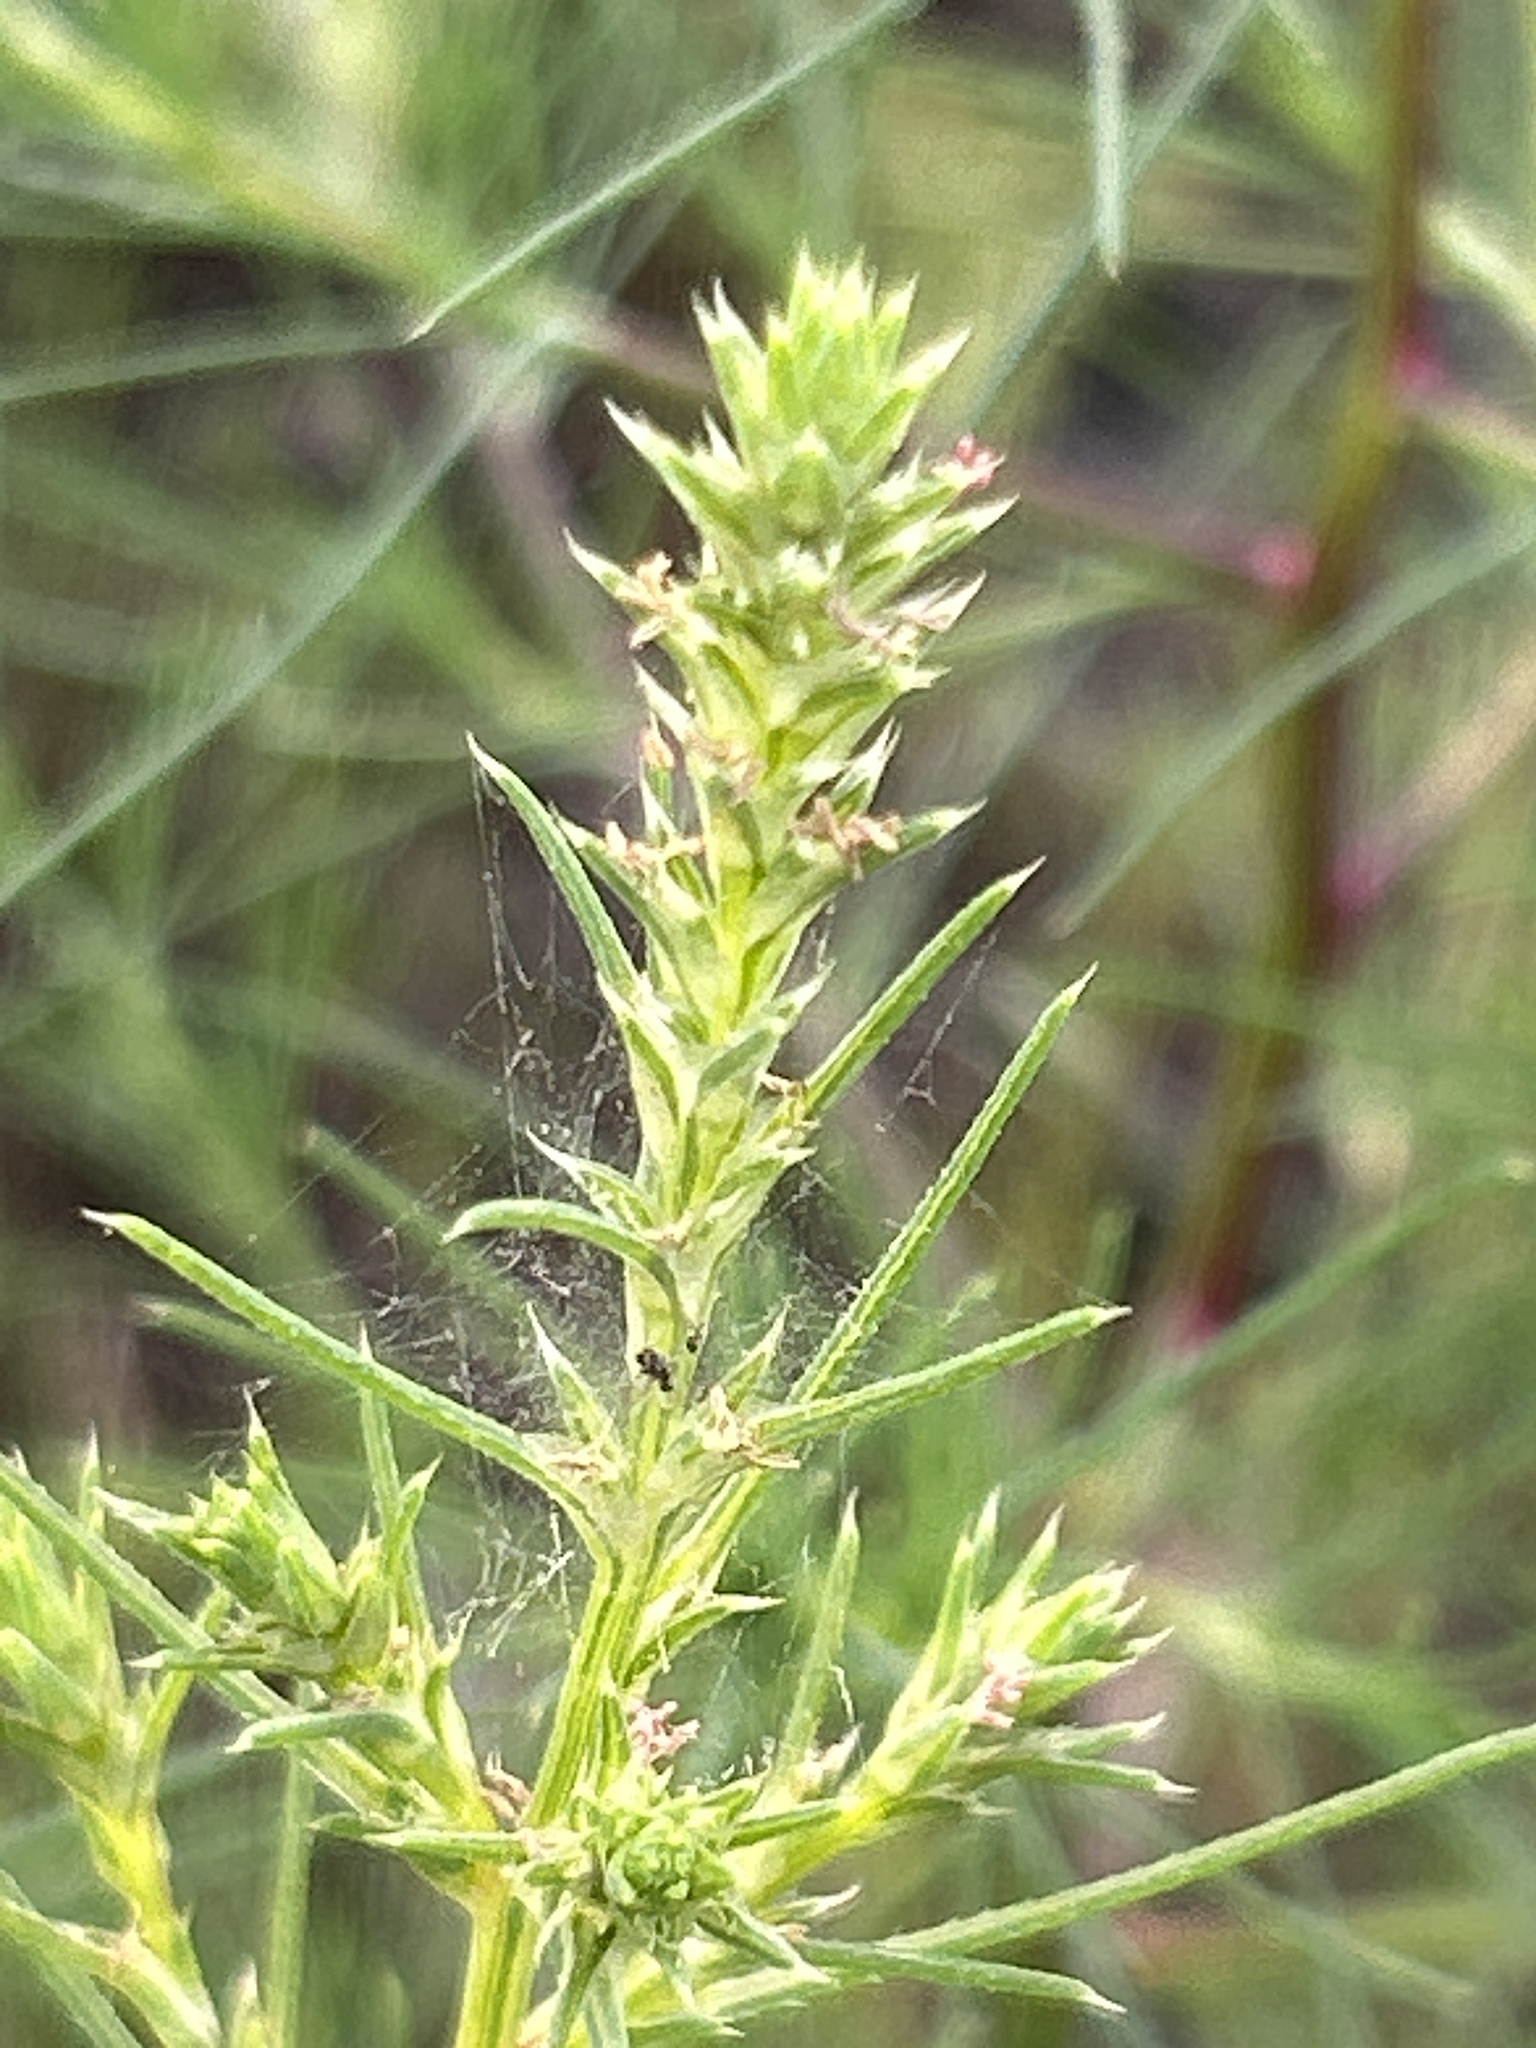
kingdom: Plantae
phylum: Tracheophyta
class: Magnoliopsida
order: Caryophyllales
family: Amaranthaceae
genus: Bassia
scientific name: Bassia scoparia
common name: Belvedere
